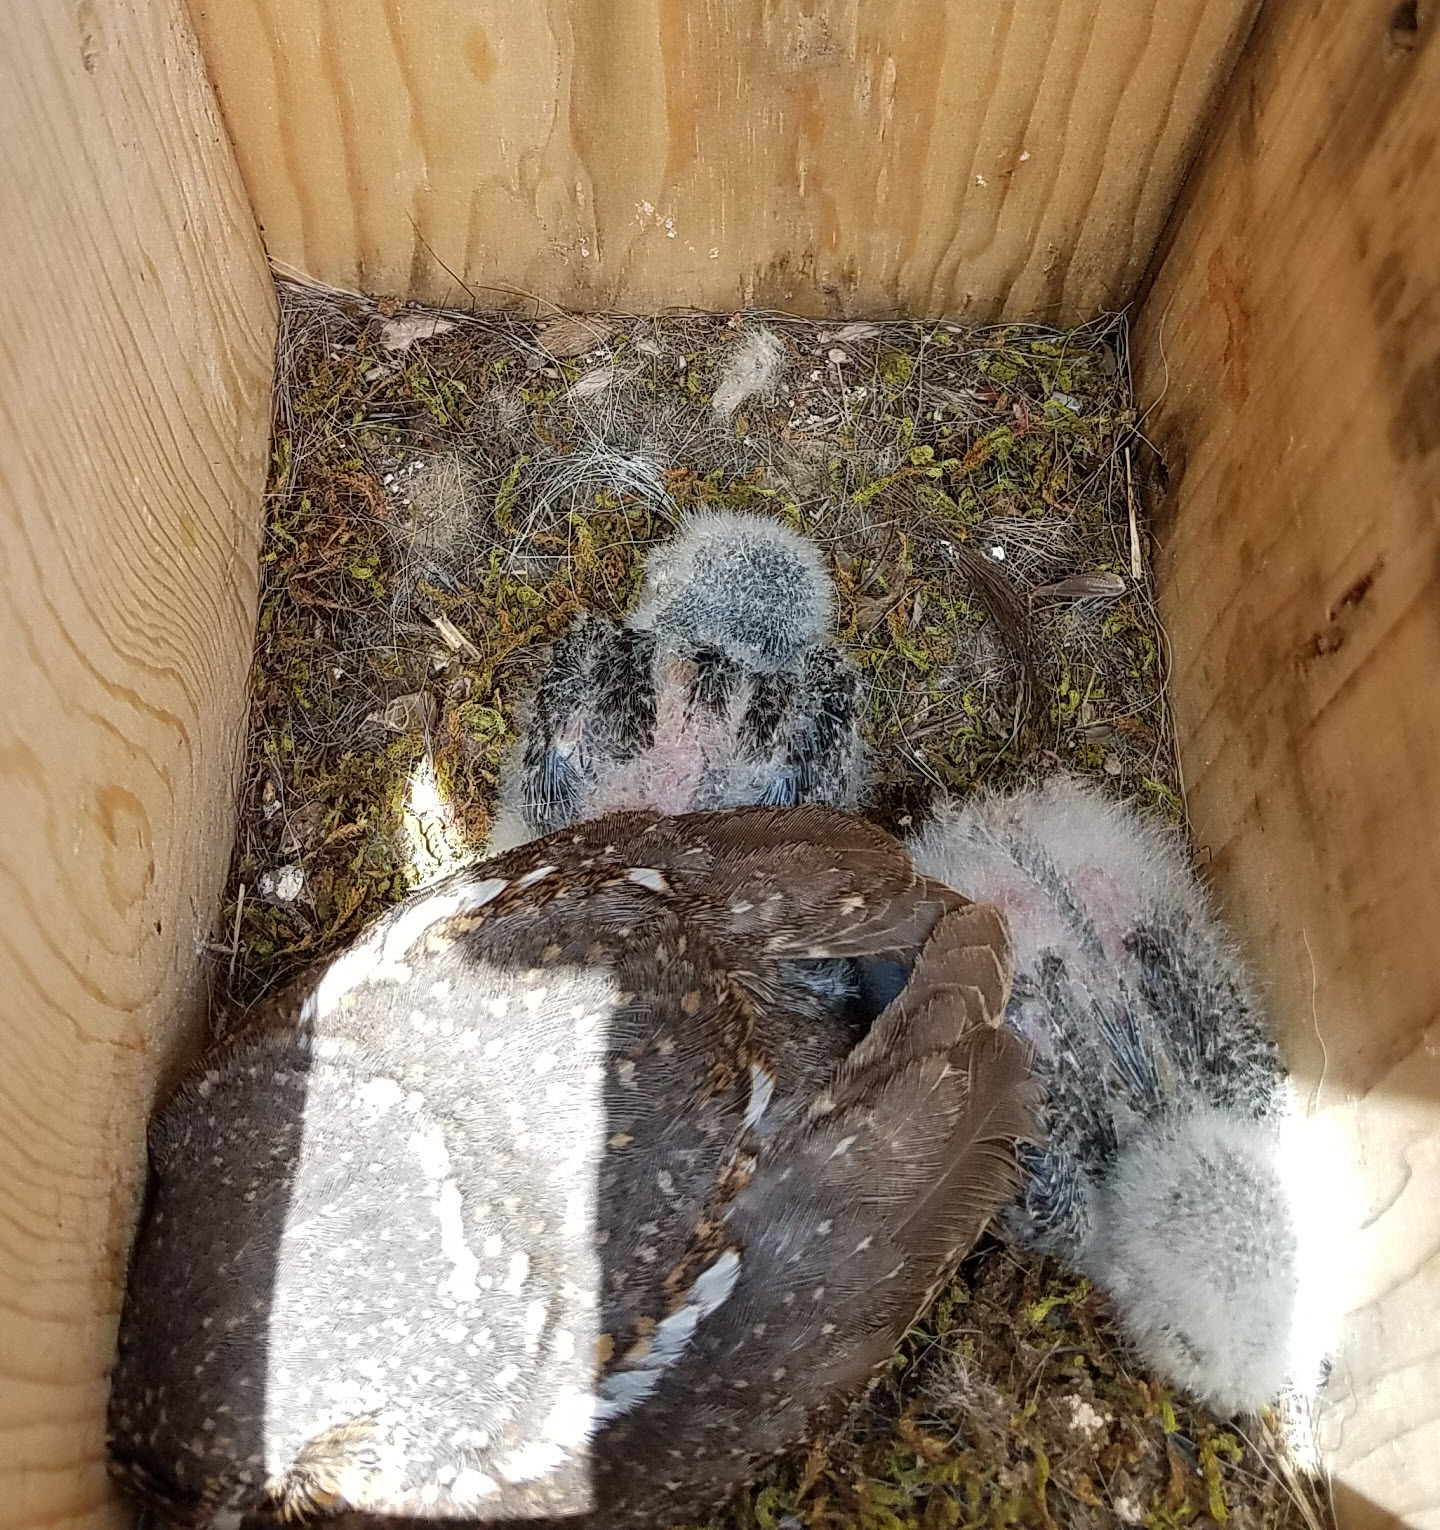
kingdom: Animalia
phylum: Chordata
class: Aves
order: Strigiformes
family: Strigidae
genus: Micrathene
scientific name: Micrathene whitneyi
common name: Elf owl
